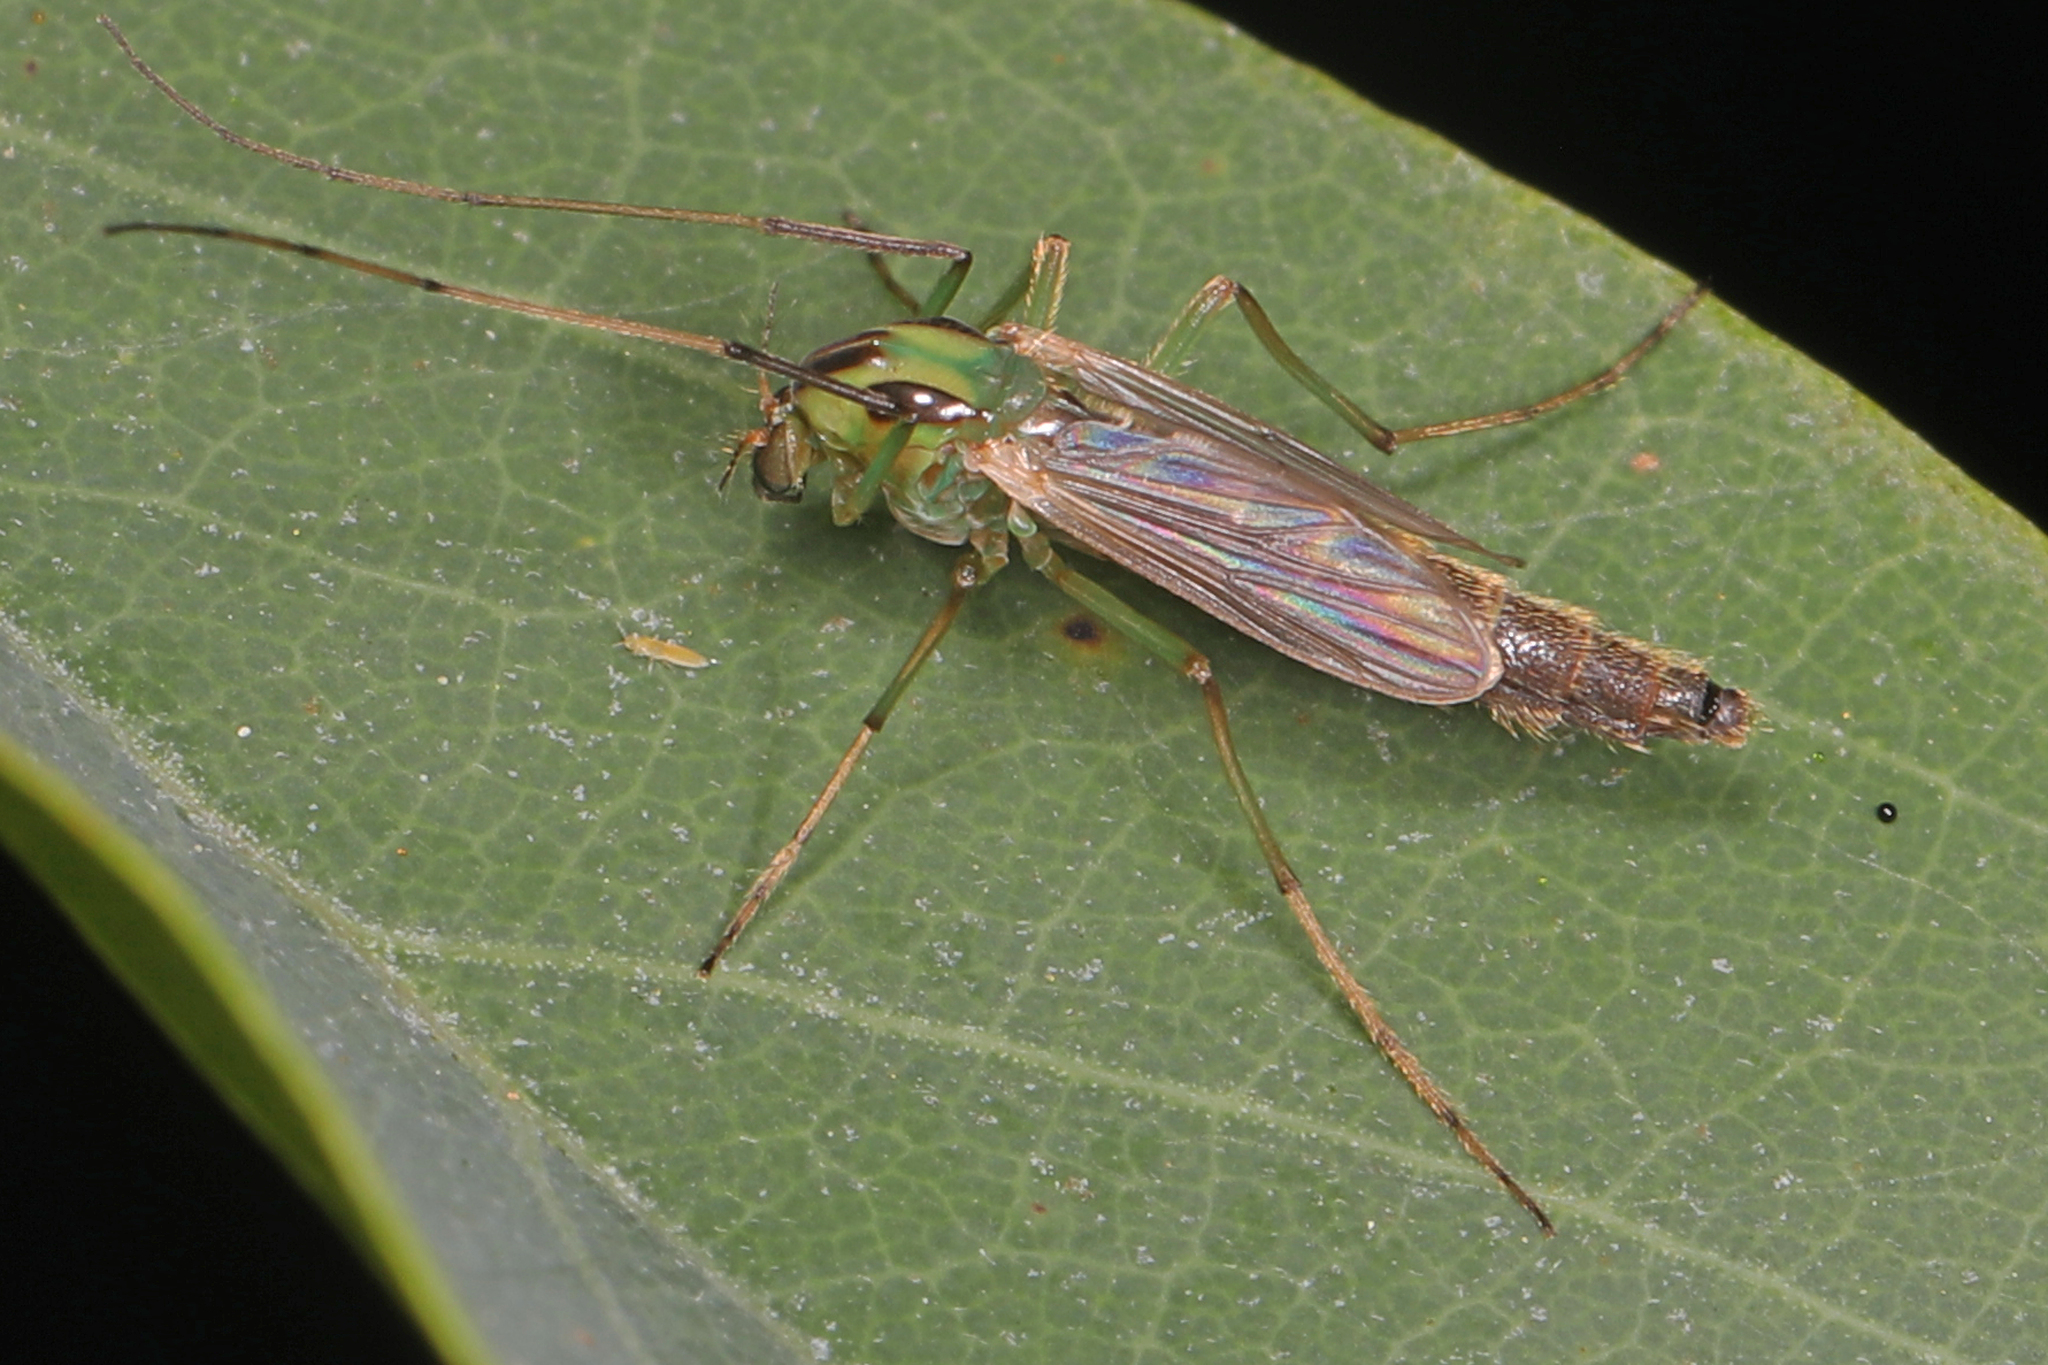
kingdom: Animalia
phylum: Arthropoda
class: Insecta
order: Diptera
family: Chironomidae
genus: Chironomus
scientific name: Chironomus atroviridis
